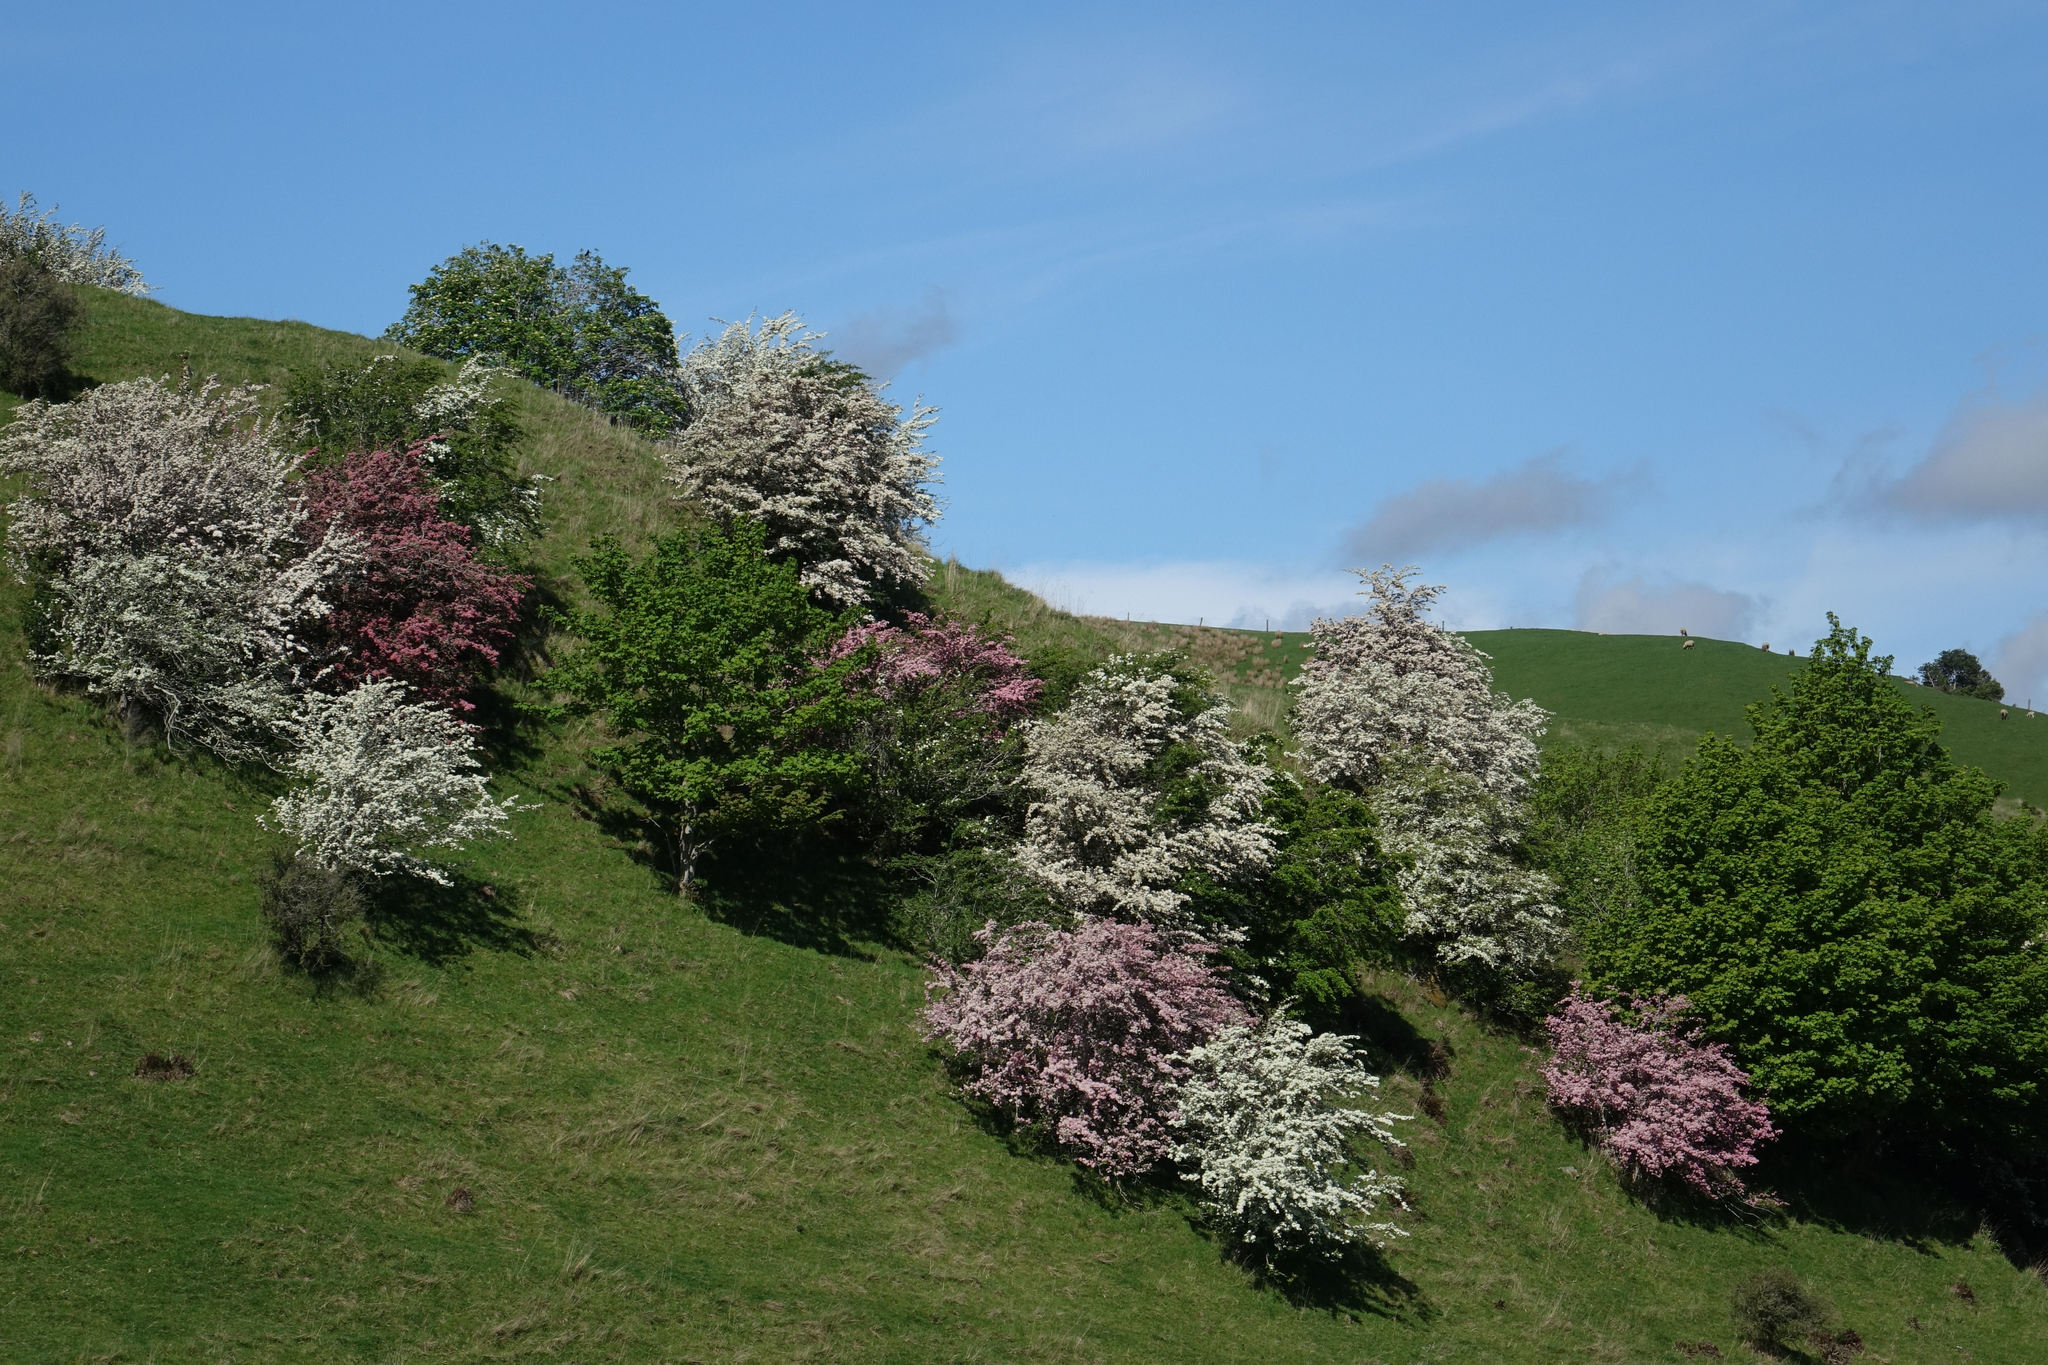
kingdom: Plantae
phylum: Tracheophyta
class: Magnoliopsida
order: Rosales
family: Rosaceae
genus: Crataegus
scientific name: Crataegus monogyna
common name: Hawthorn
